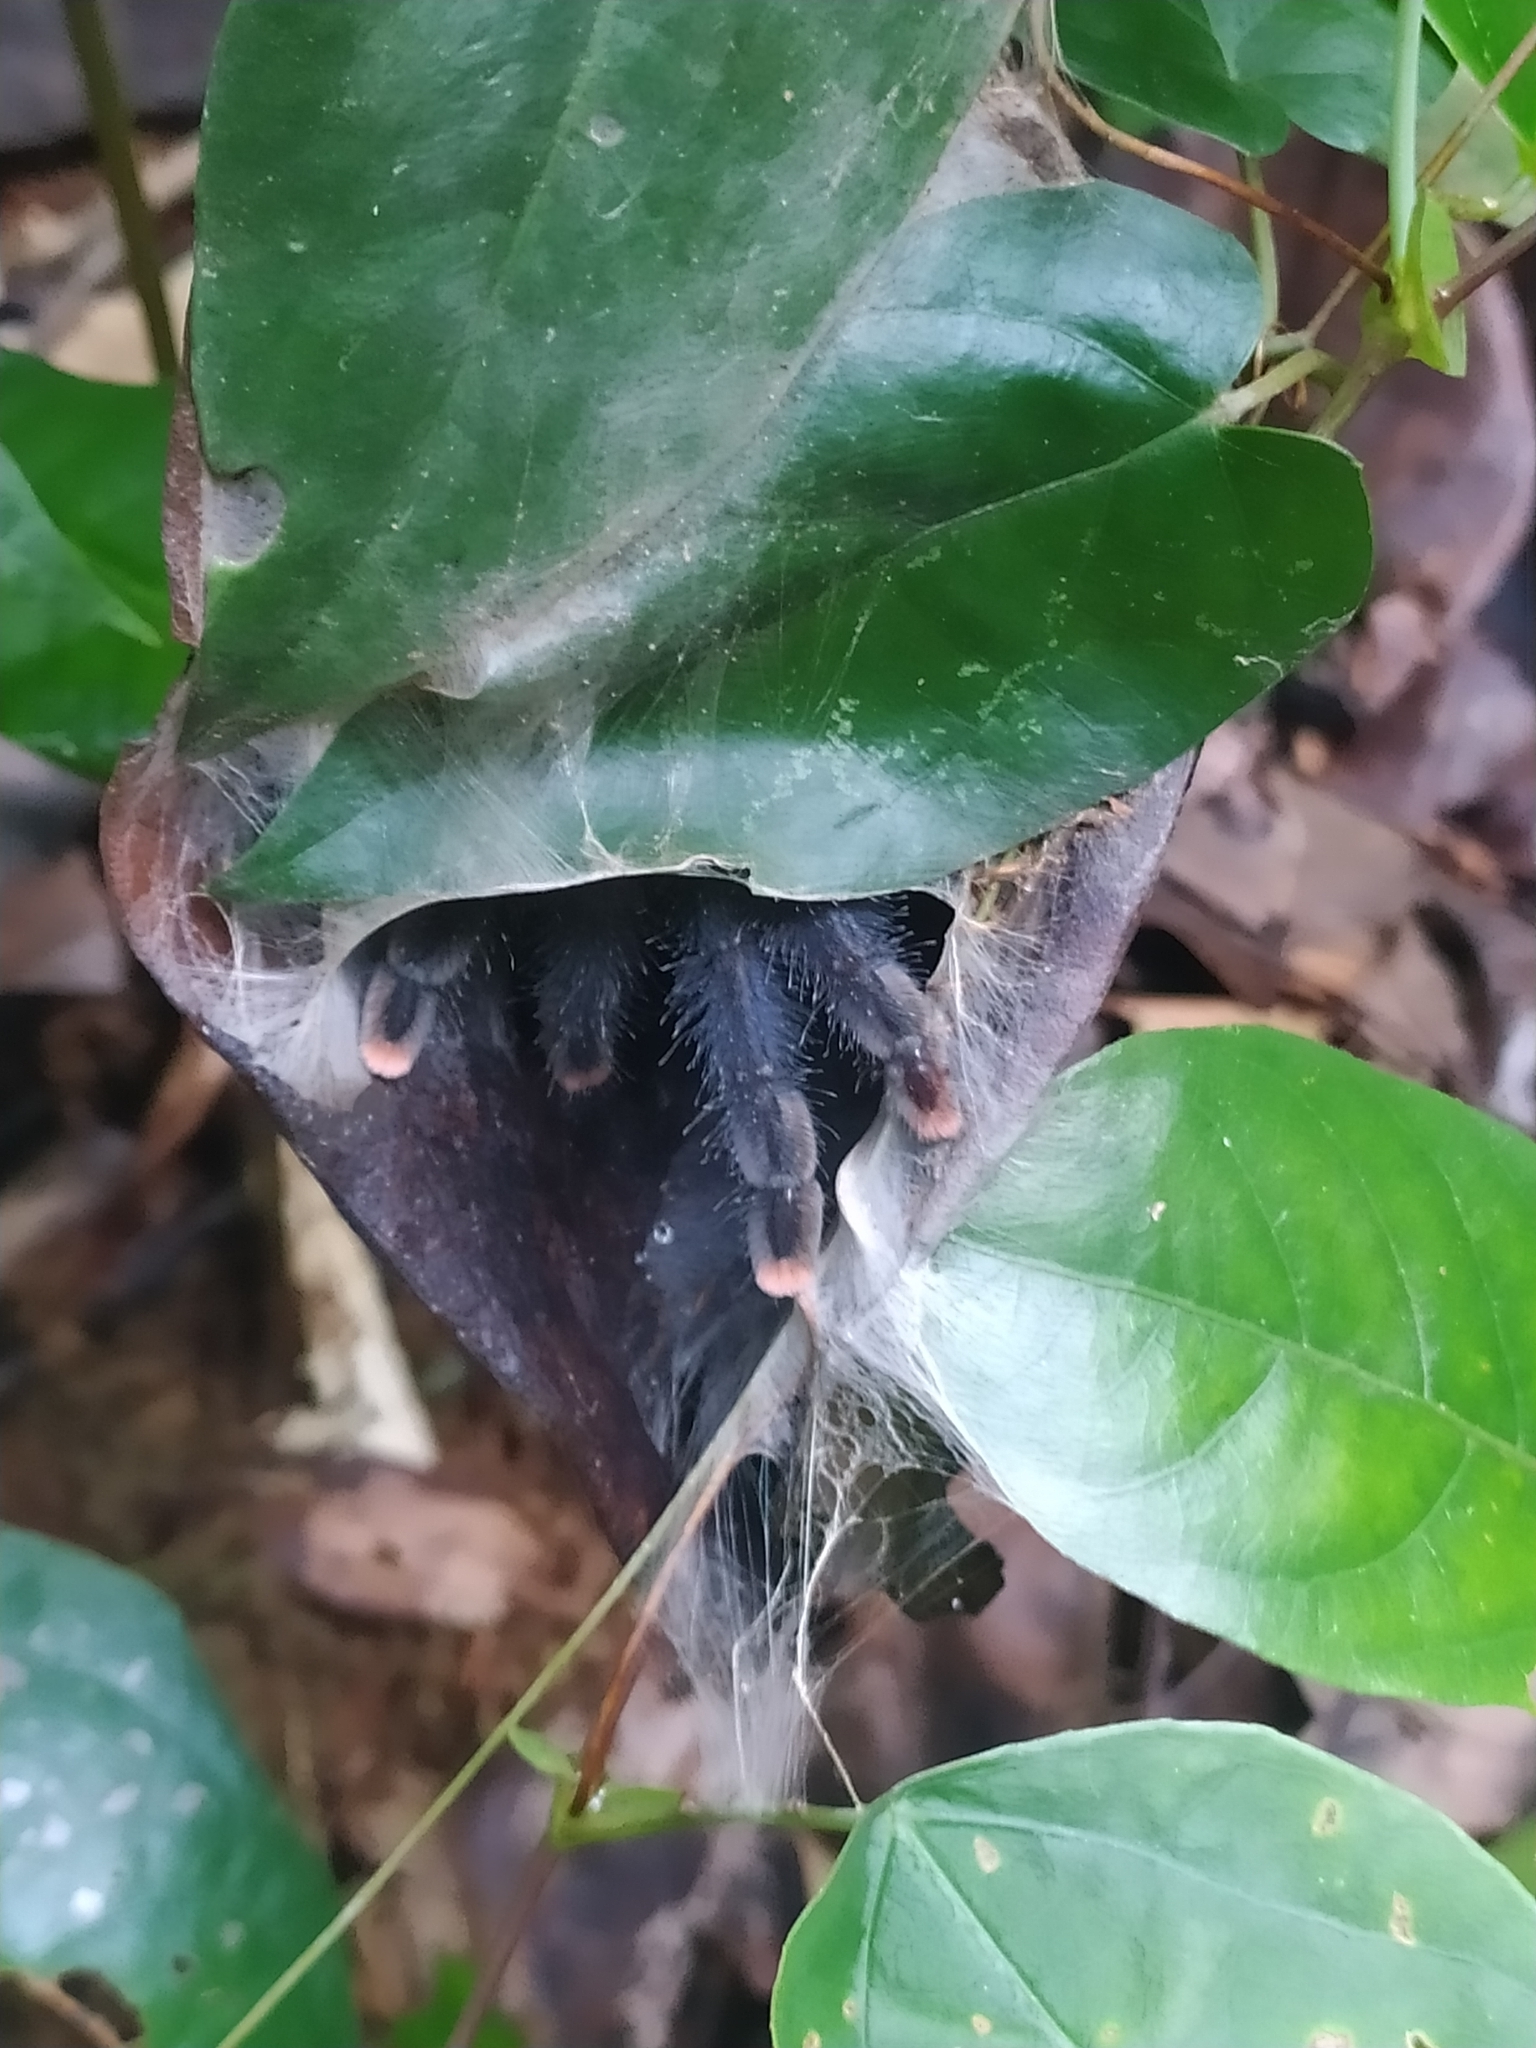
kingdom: Animalia
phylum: Arthropoda
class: Arachnida
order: Araneae
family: Theraphosidae
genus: Avicularia
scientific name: Avicularia avicularia
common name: Tarantula spiders
